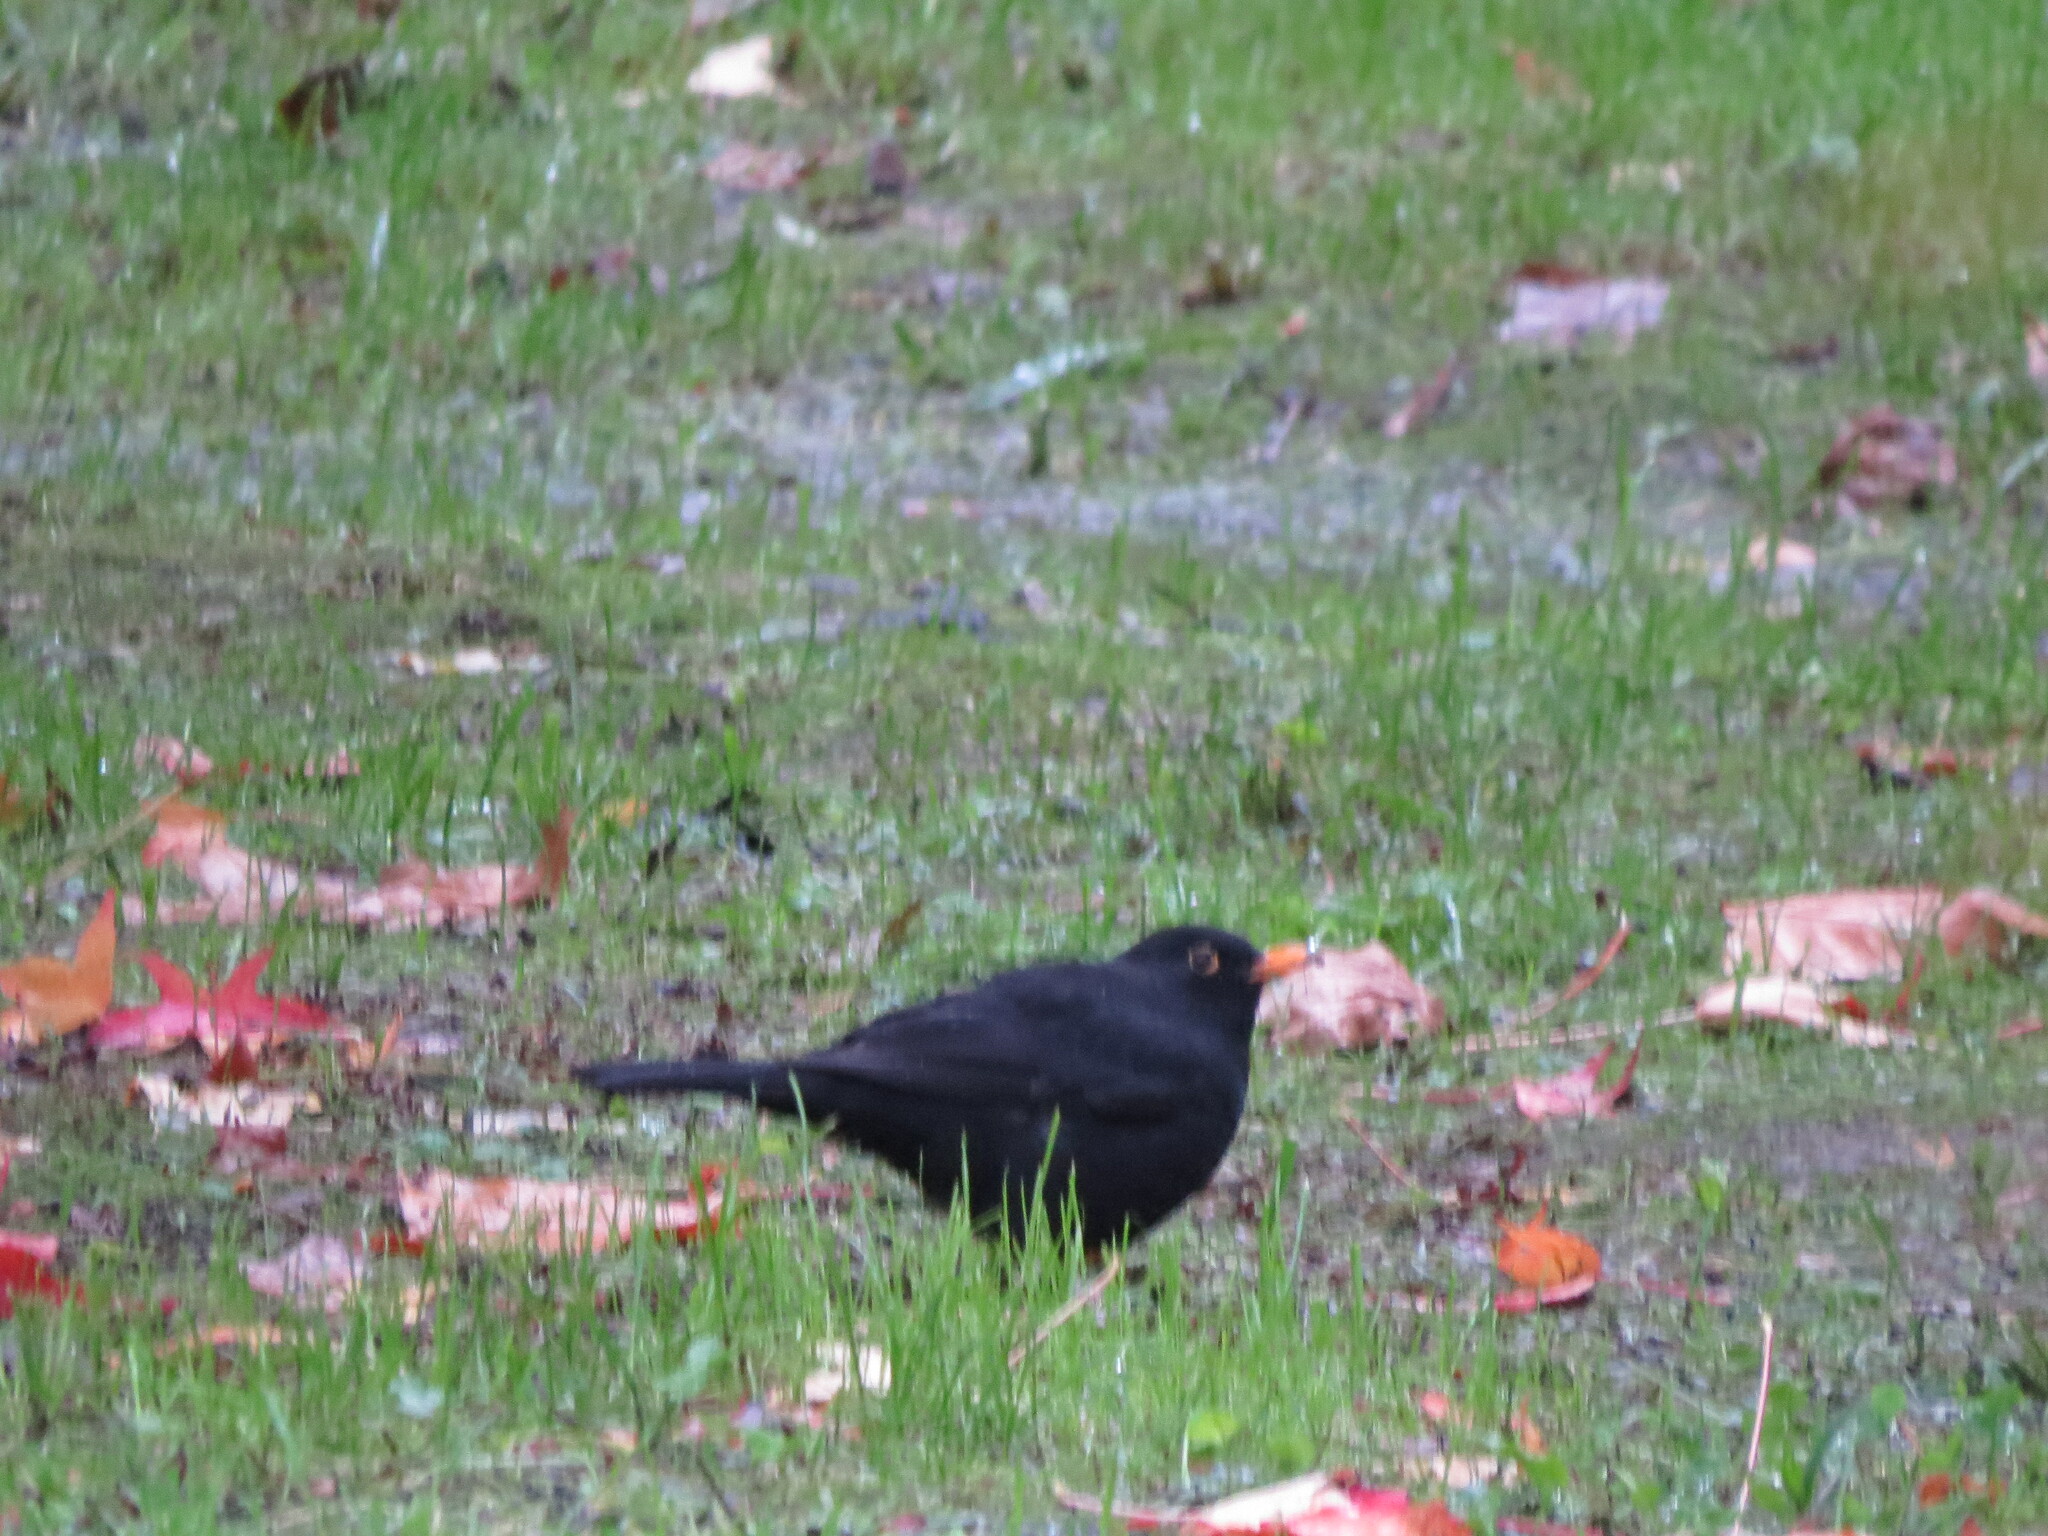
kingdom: Animalia
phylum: Chordata
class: Aves
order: Passeriformes
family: Turdidae
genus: Turdus
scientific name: Turdus merula
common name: Common blackbird
